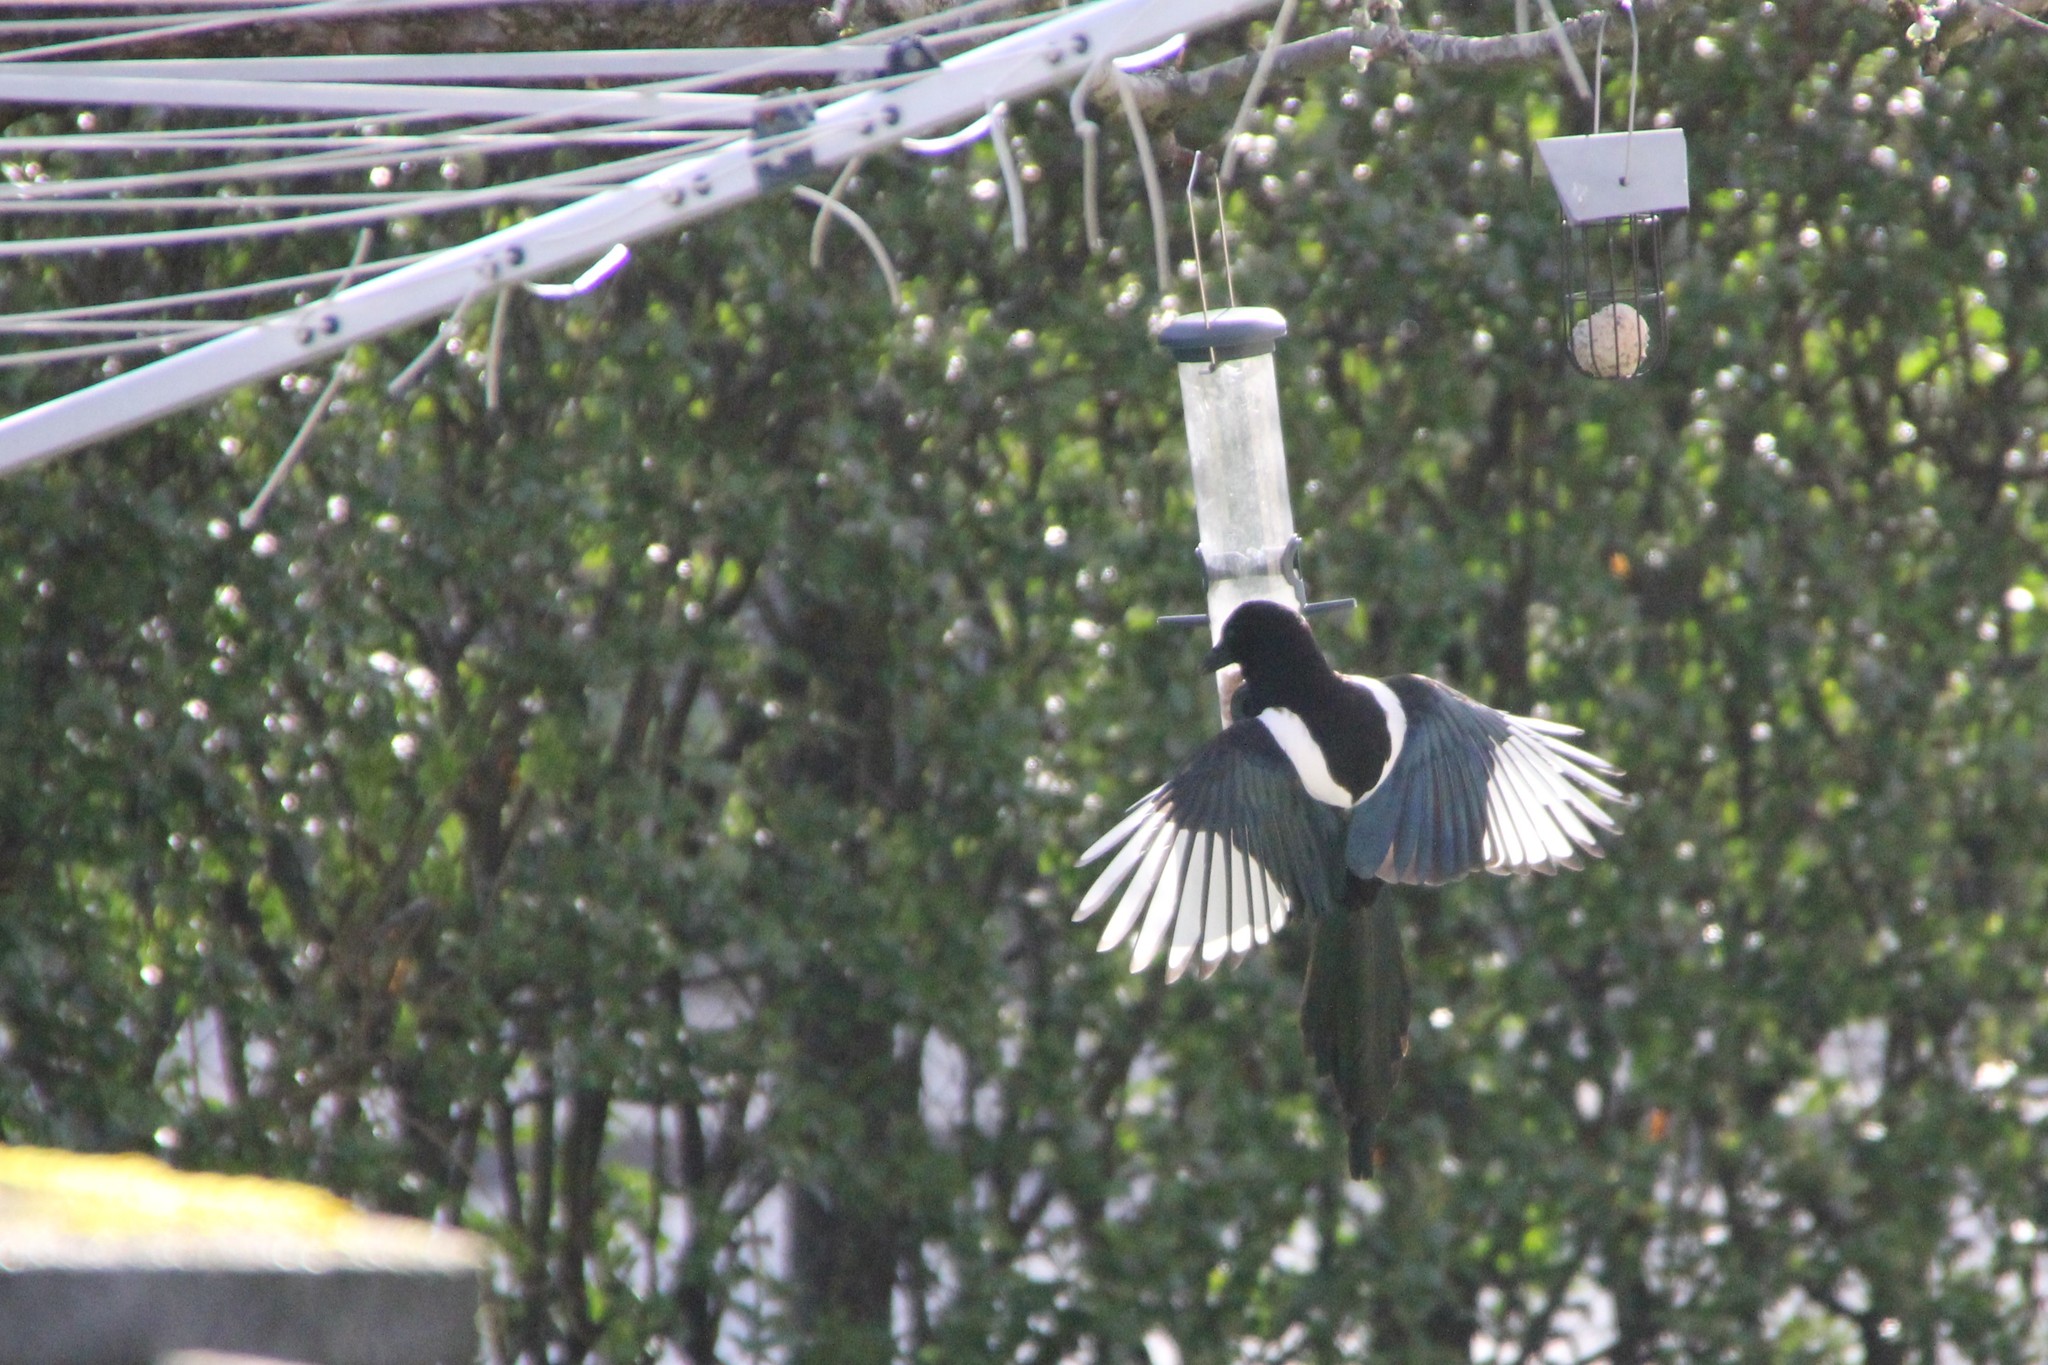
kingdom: Animalia
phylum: Chordata
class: Aves
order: Passeriformes
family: Corvidae
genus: Pica
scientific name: Pica pica
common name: Eurasian magpie
